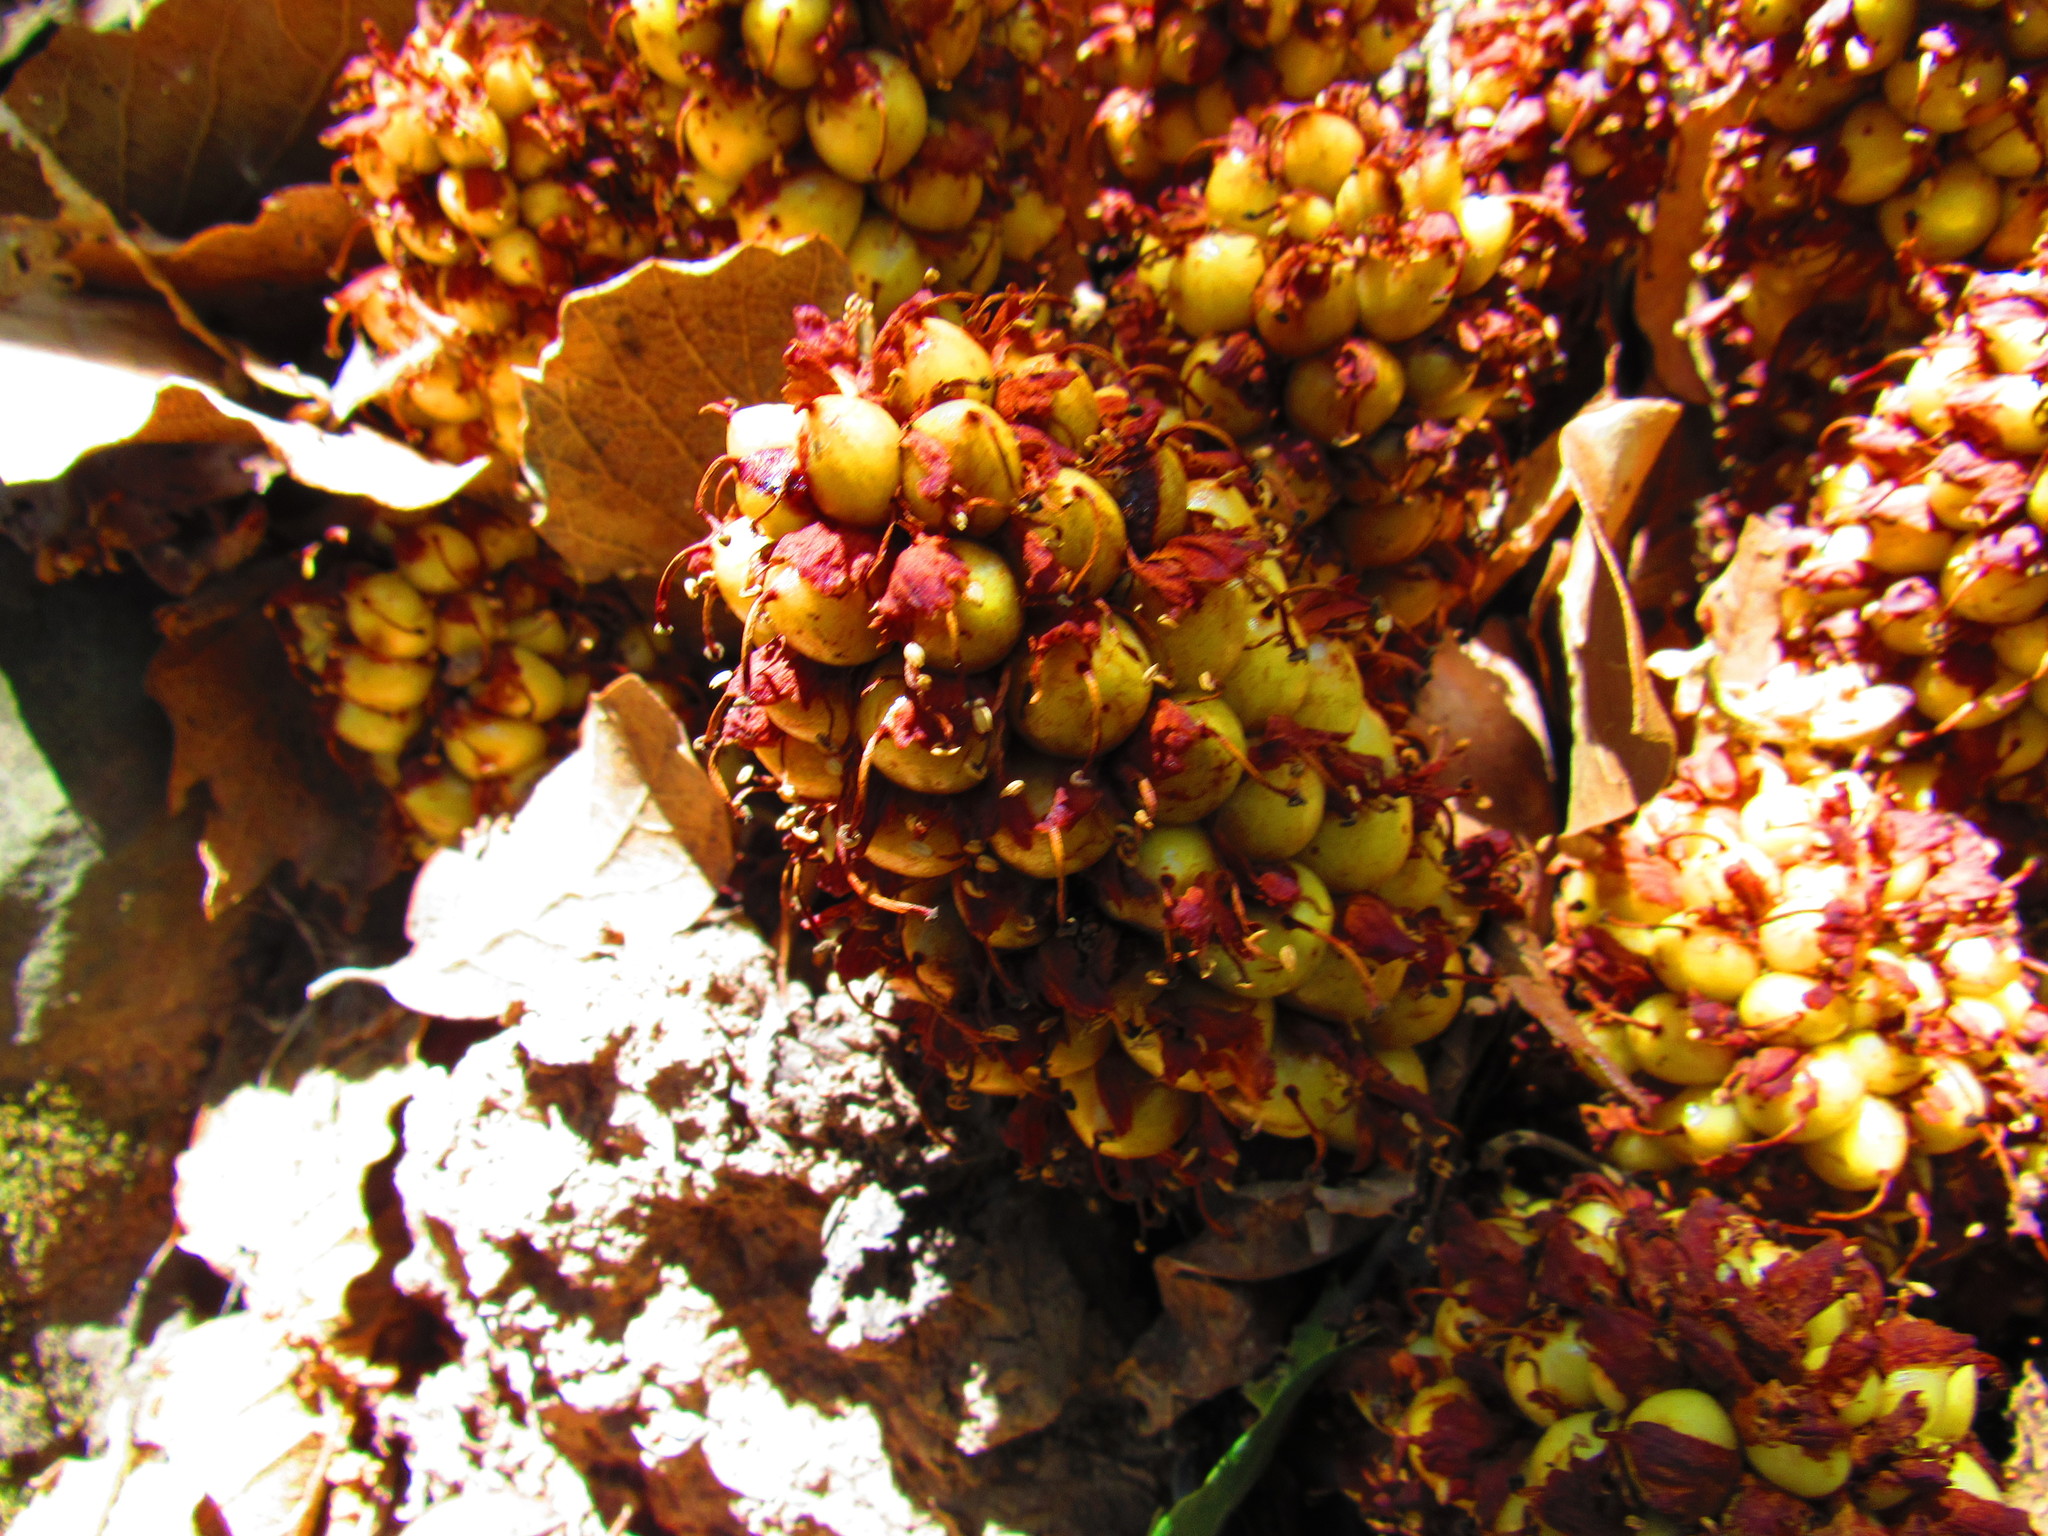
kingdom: Plantae
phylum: Tracheophyta
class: Magnoliopsida
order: Lamiales
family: Orobanchaceae
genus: Conopholis
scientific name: Conopholis alpina
